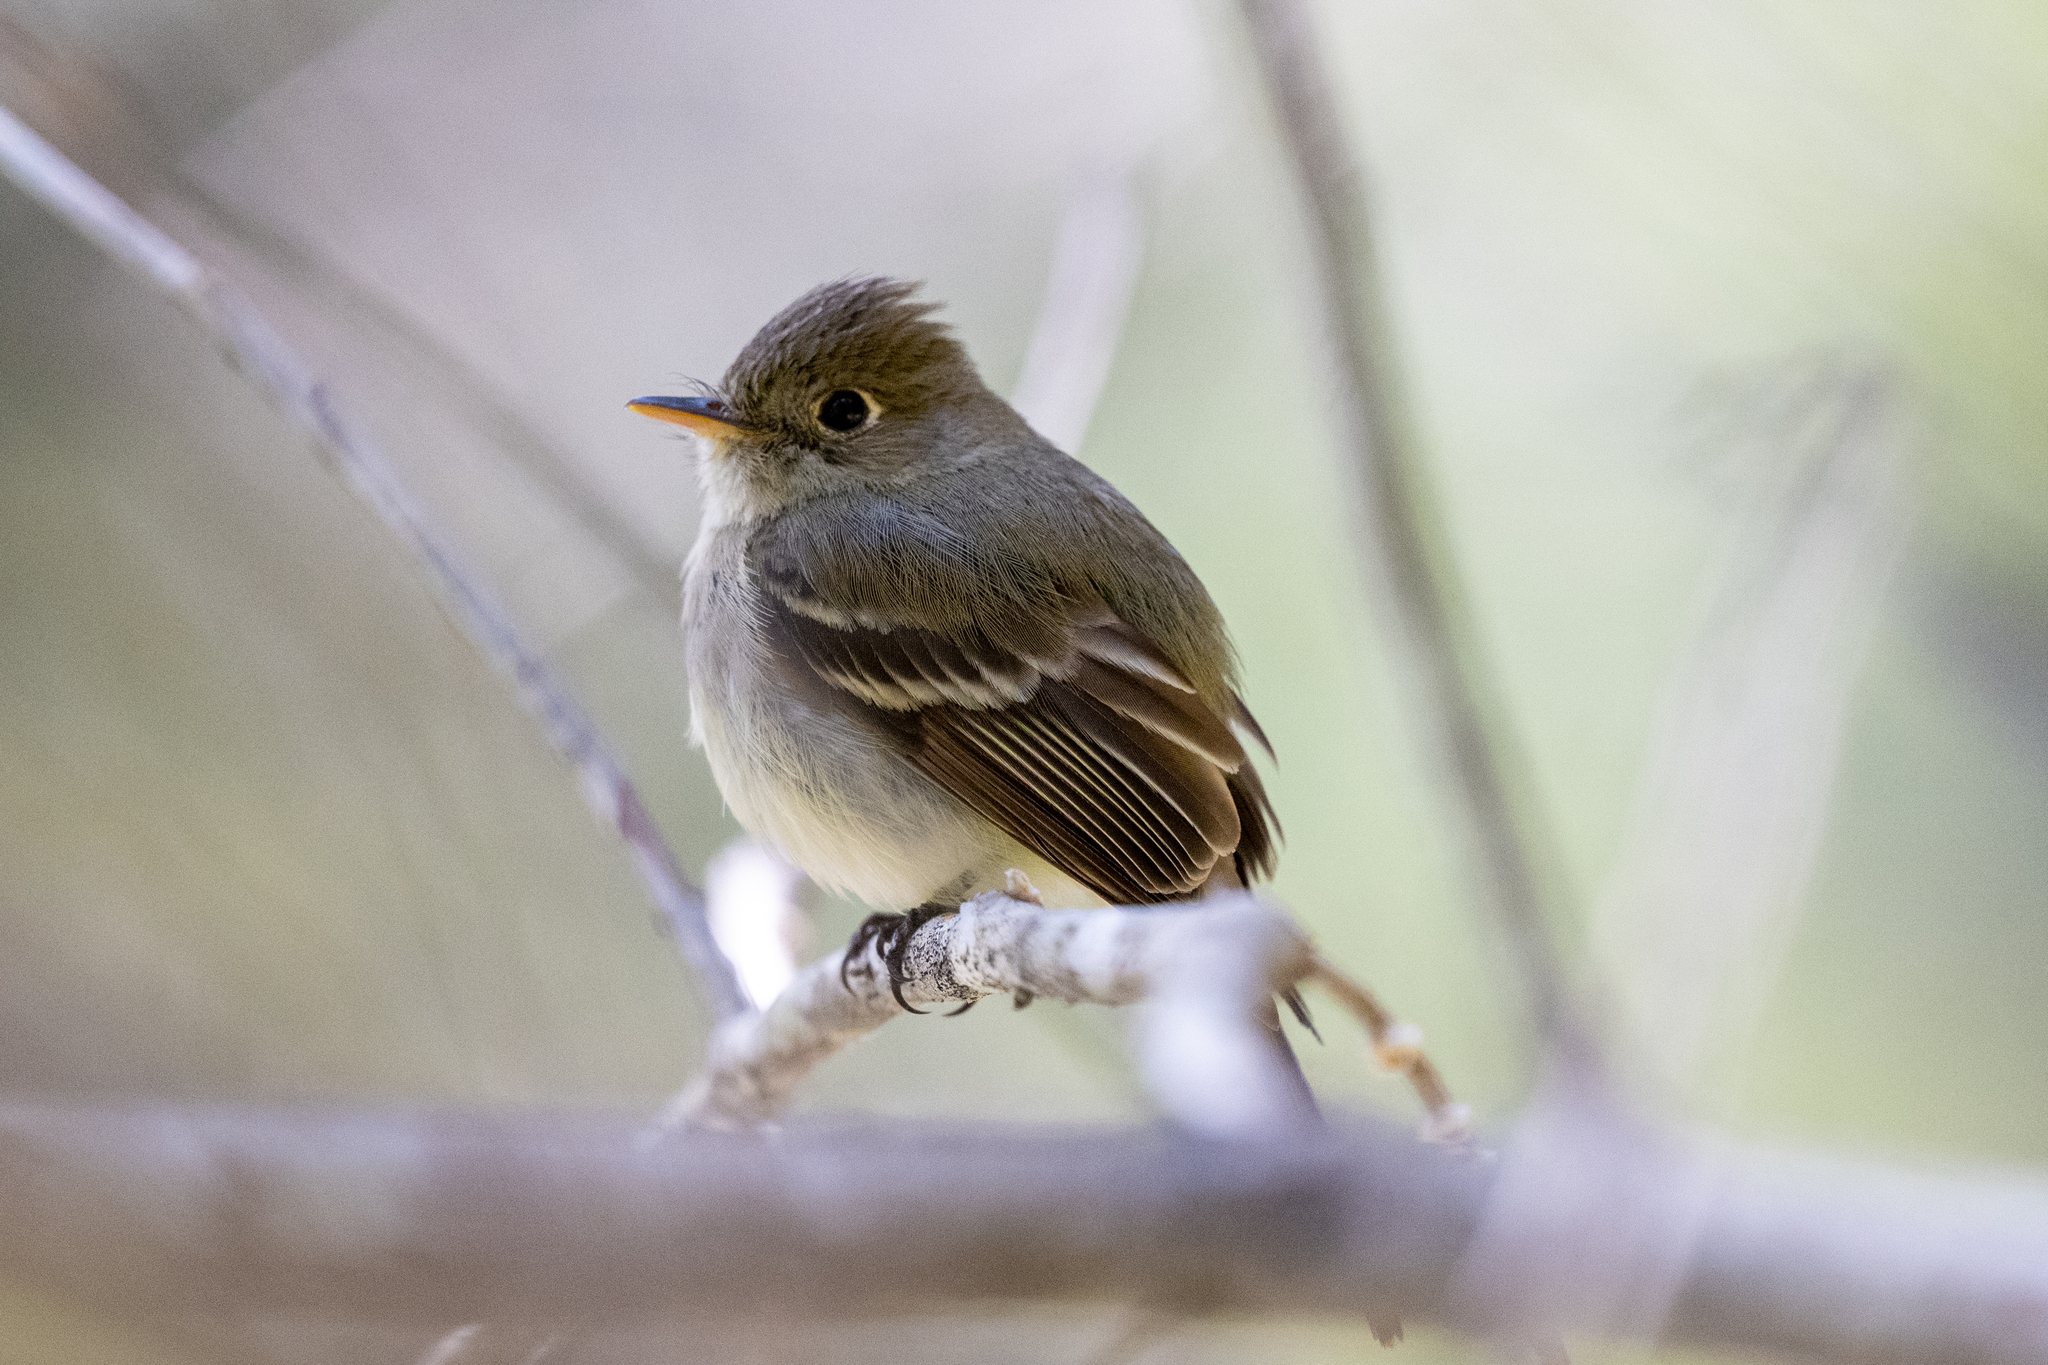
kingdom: Animalia
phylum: Chordata
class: Aves
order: Passeriformes
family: Tyrannidae
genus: Empidonax
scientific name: Empidonax difficilis
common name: Pacific-slope flycatcher
